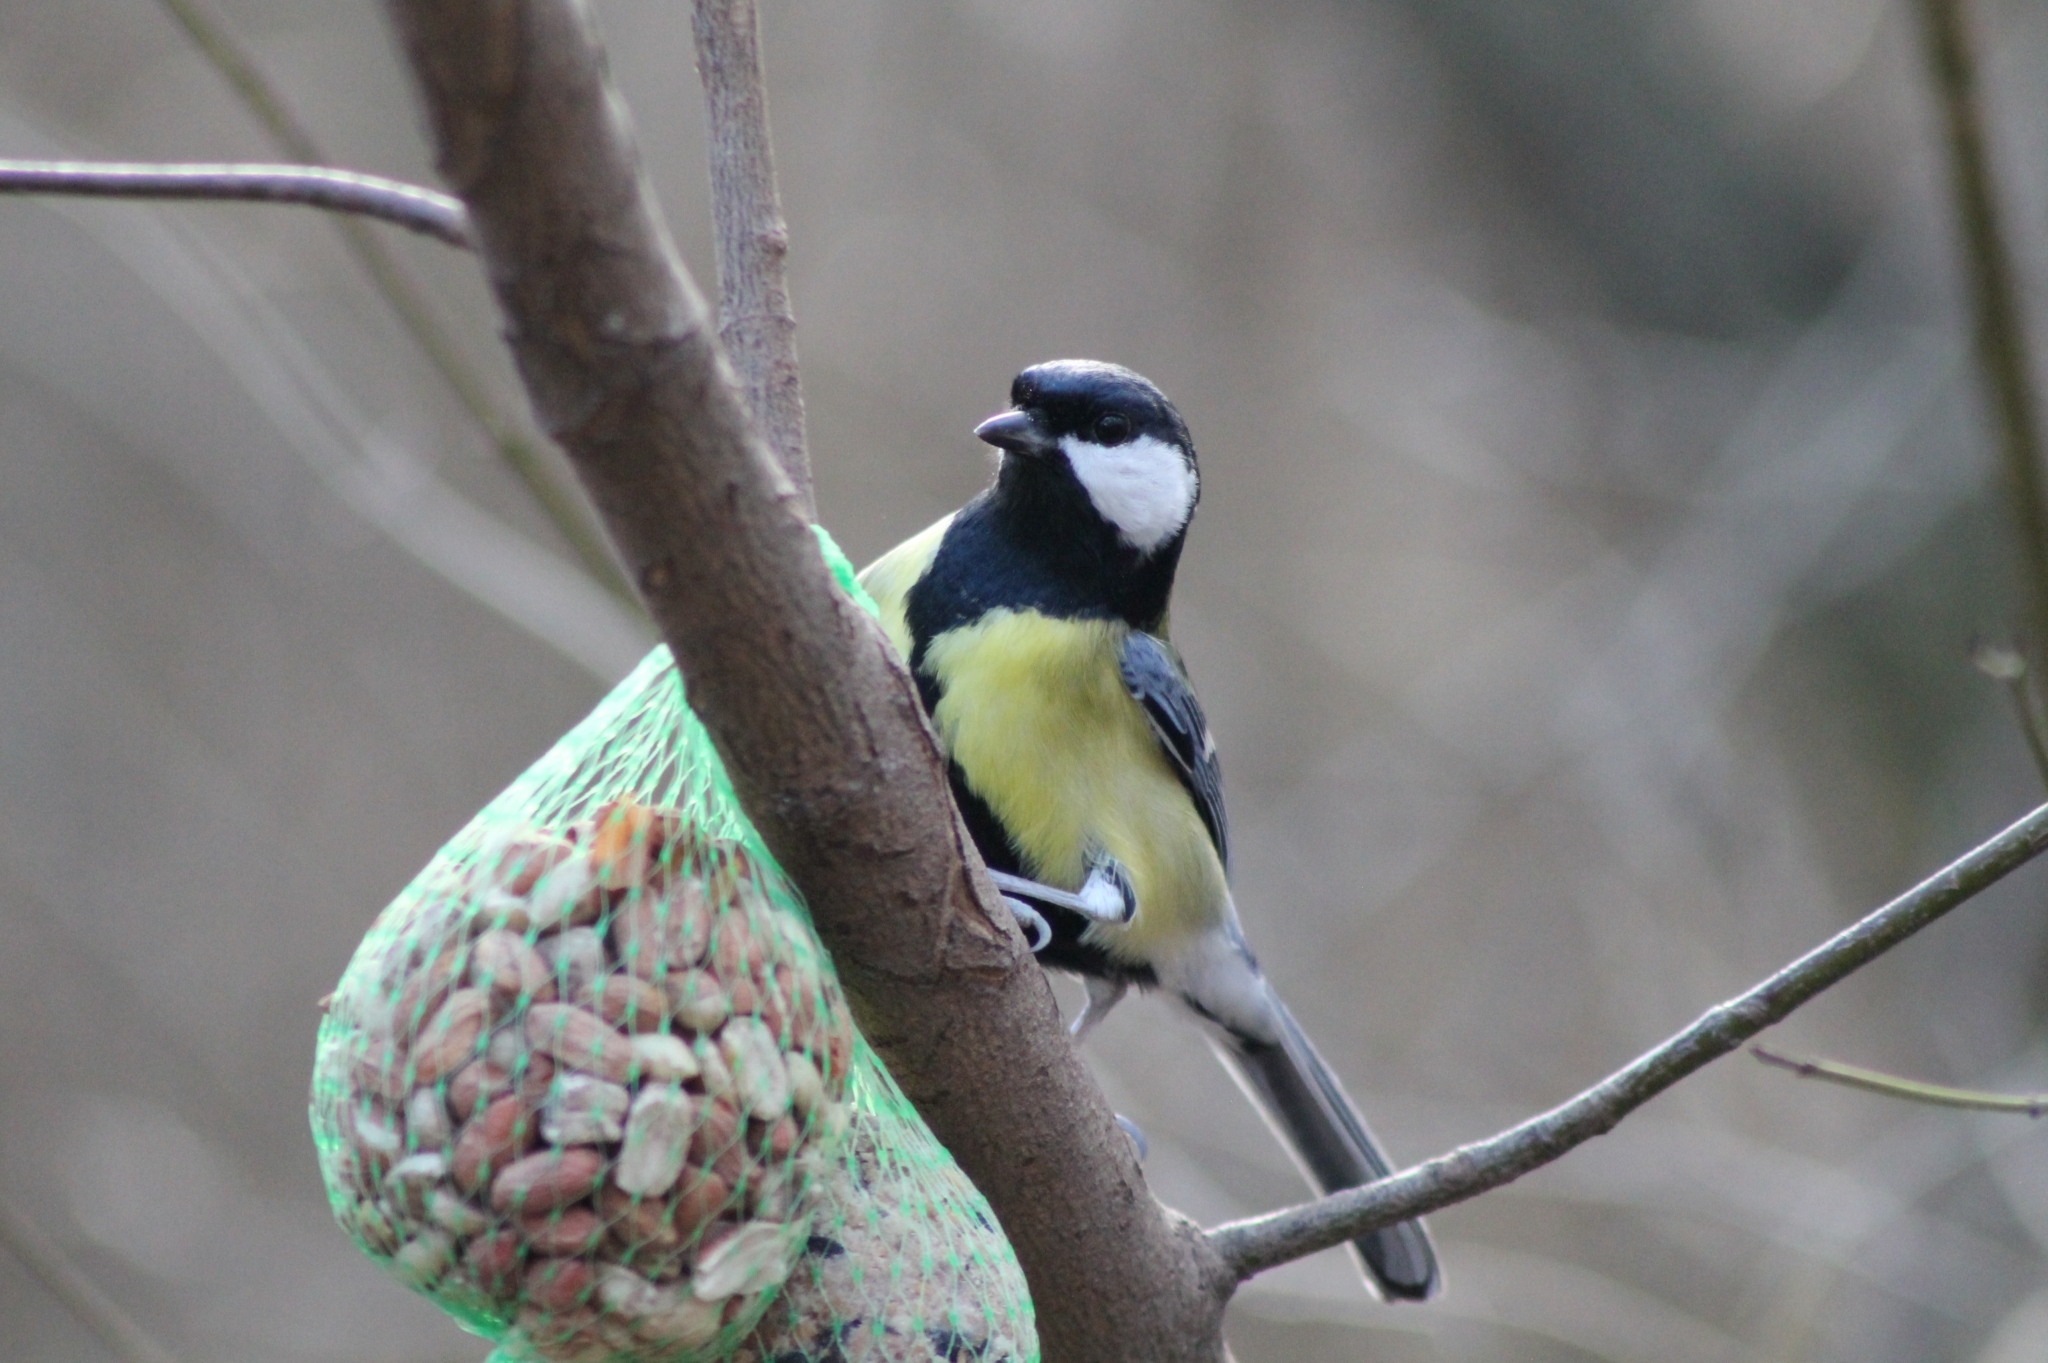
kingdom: Animalia
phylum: Chordata
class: Aves
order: Passeriformes
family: Paridae
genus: Parus
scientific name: Parus major
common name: Great tit
